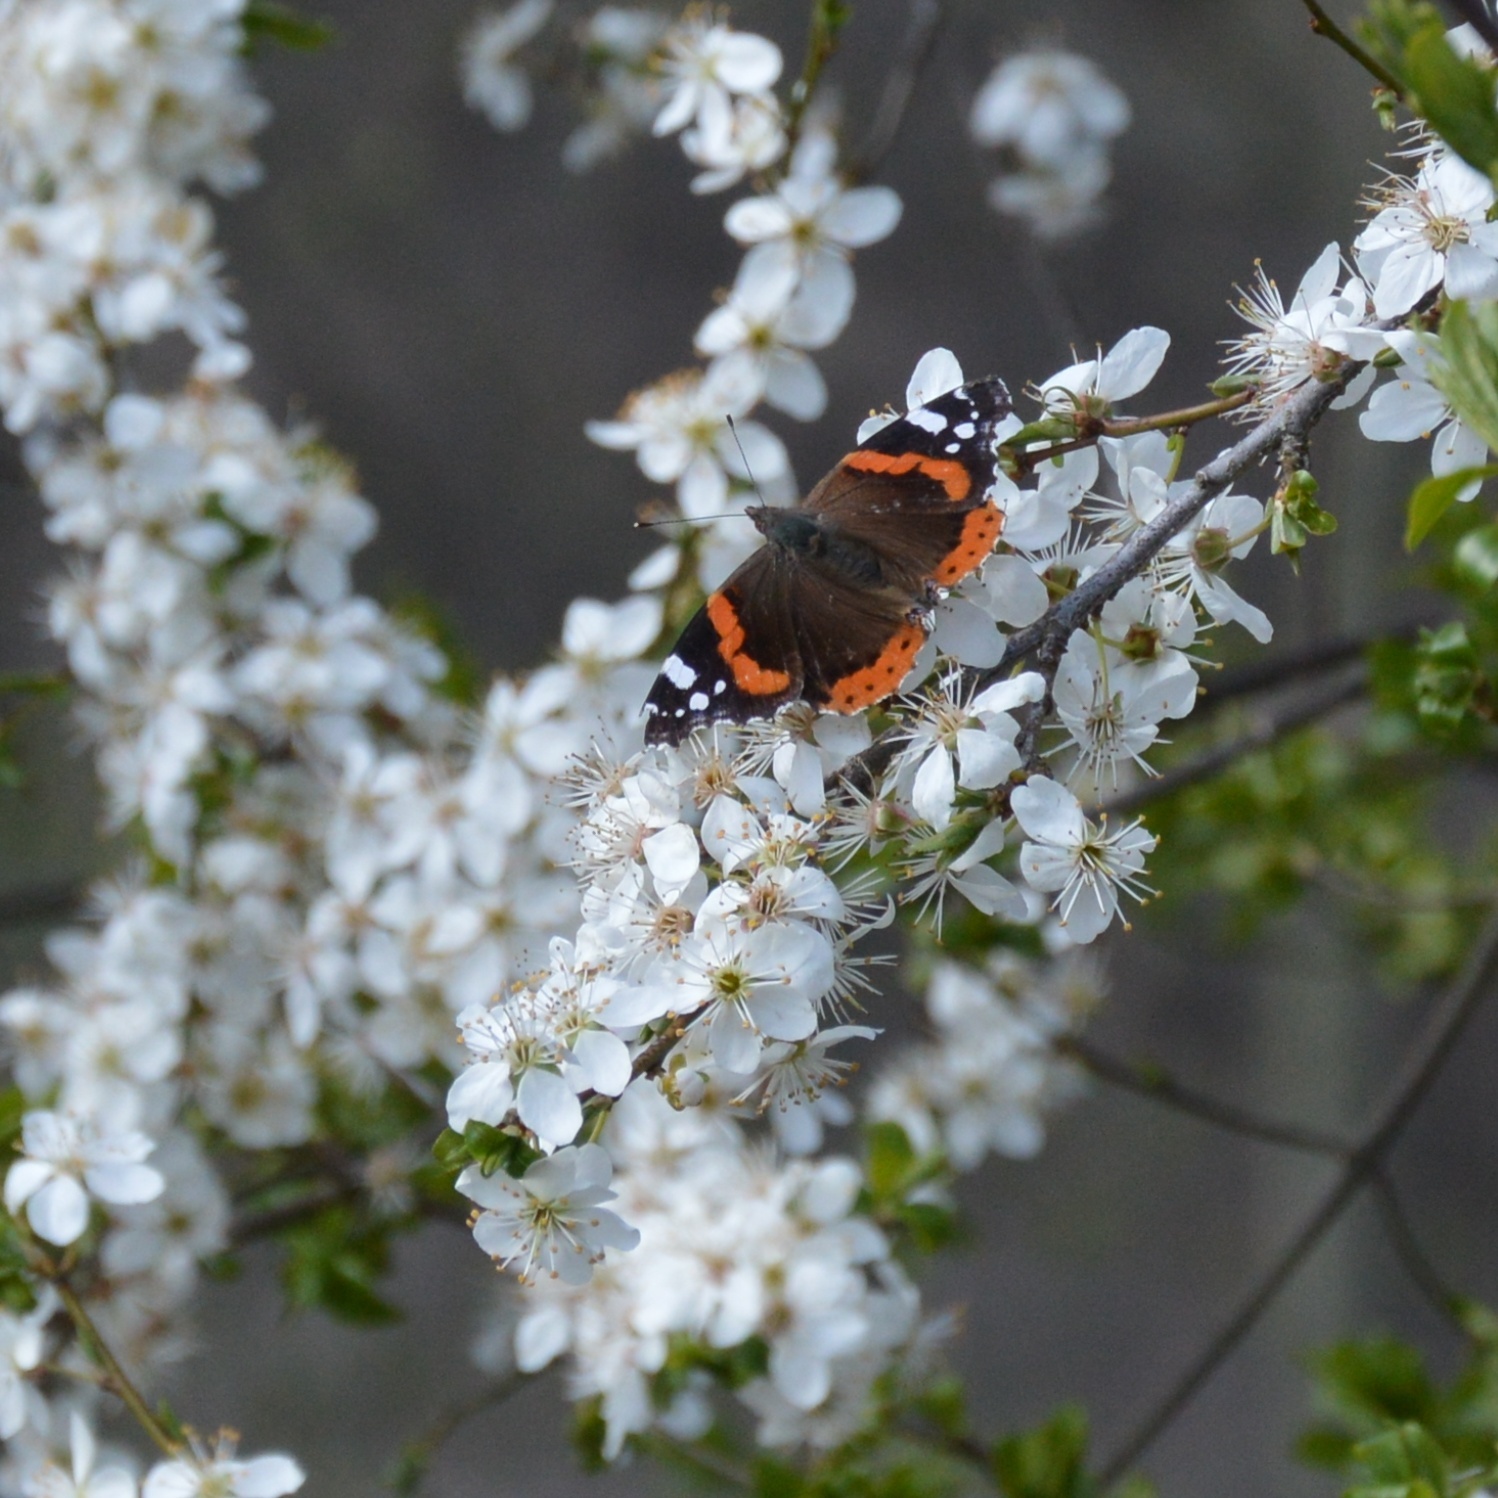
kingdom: Animalia
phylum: Arthropoda
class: Insecta
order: Lepidoptera
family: Nymphalidae
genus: Vanessa
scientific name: Vanessa atalanta
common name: Red admiral
